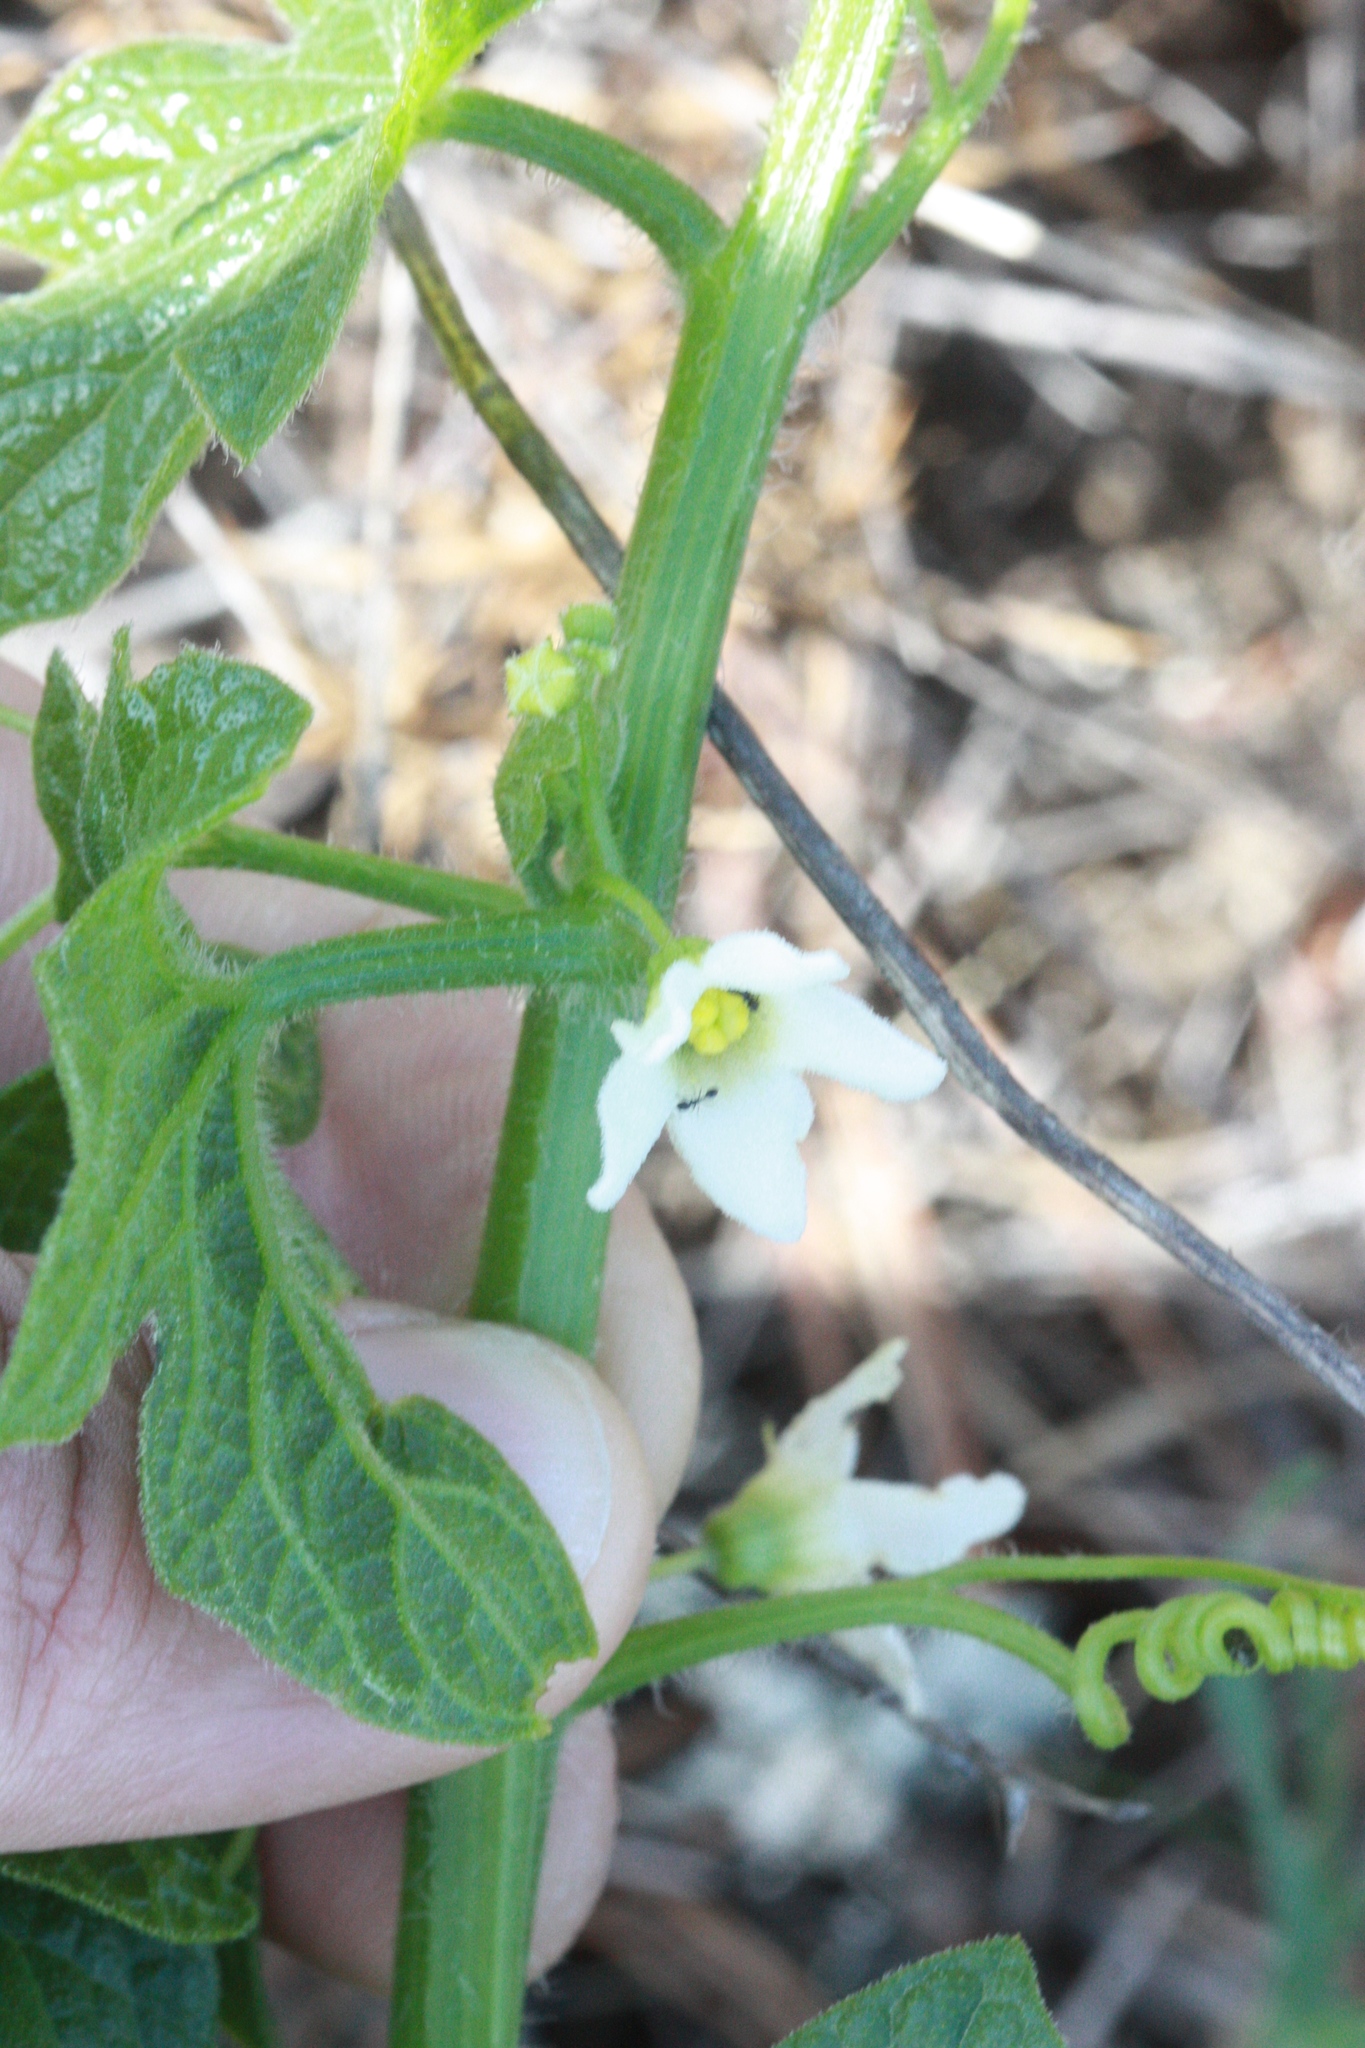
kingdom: Plantae
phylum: Tracheophyta
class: Magnoliopsida
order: Cucurbitales
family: Cucurbitaceae
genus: Marah
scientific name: Marah oregana
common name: Coastal manroot
